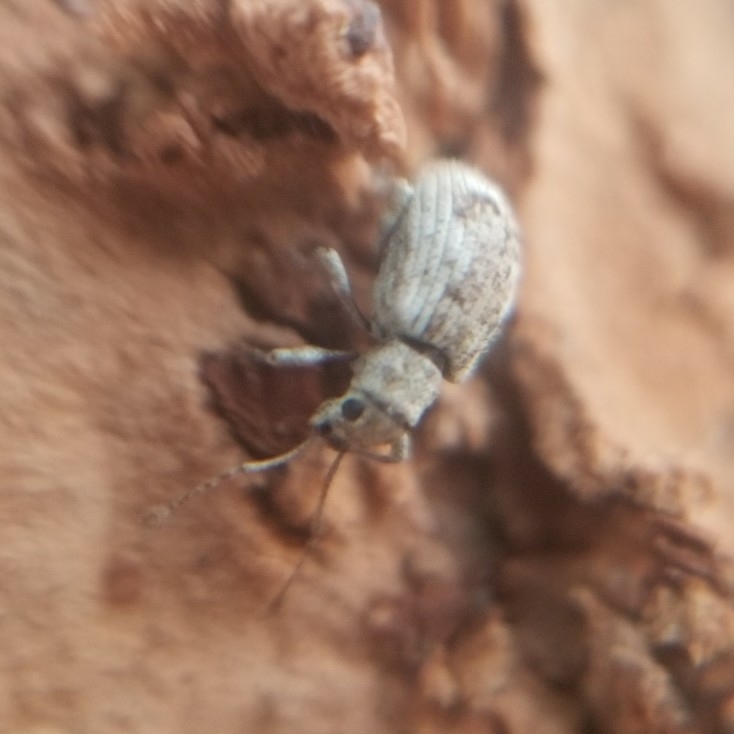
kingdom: Animalia
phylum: Arthropoda
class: Insecta
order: Coleoptera
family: Curculionidae
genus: Pseudoedophrys
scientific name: Pseudoedophrys hilleri
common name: Weevil
